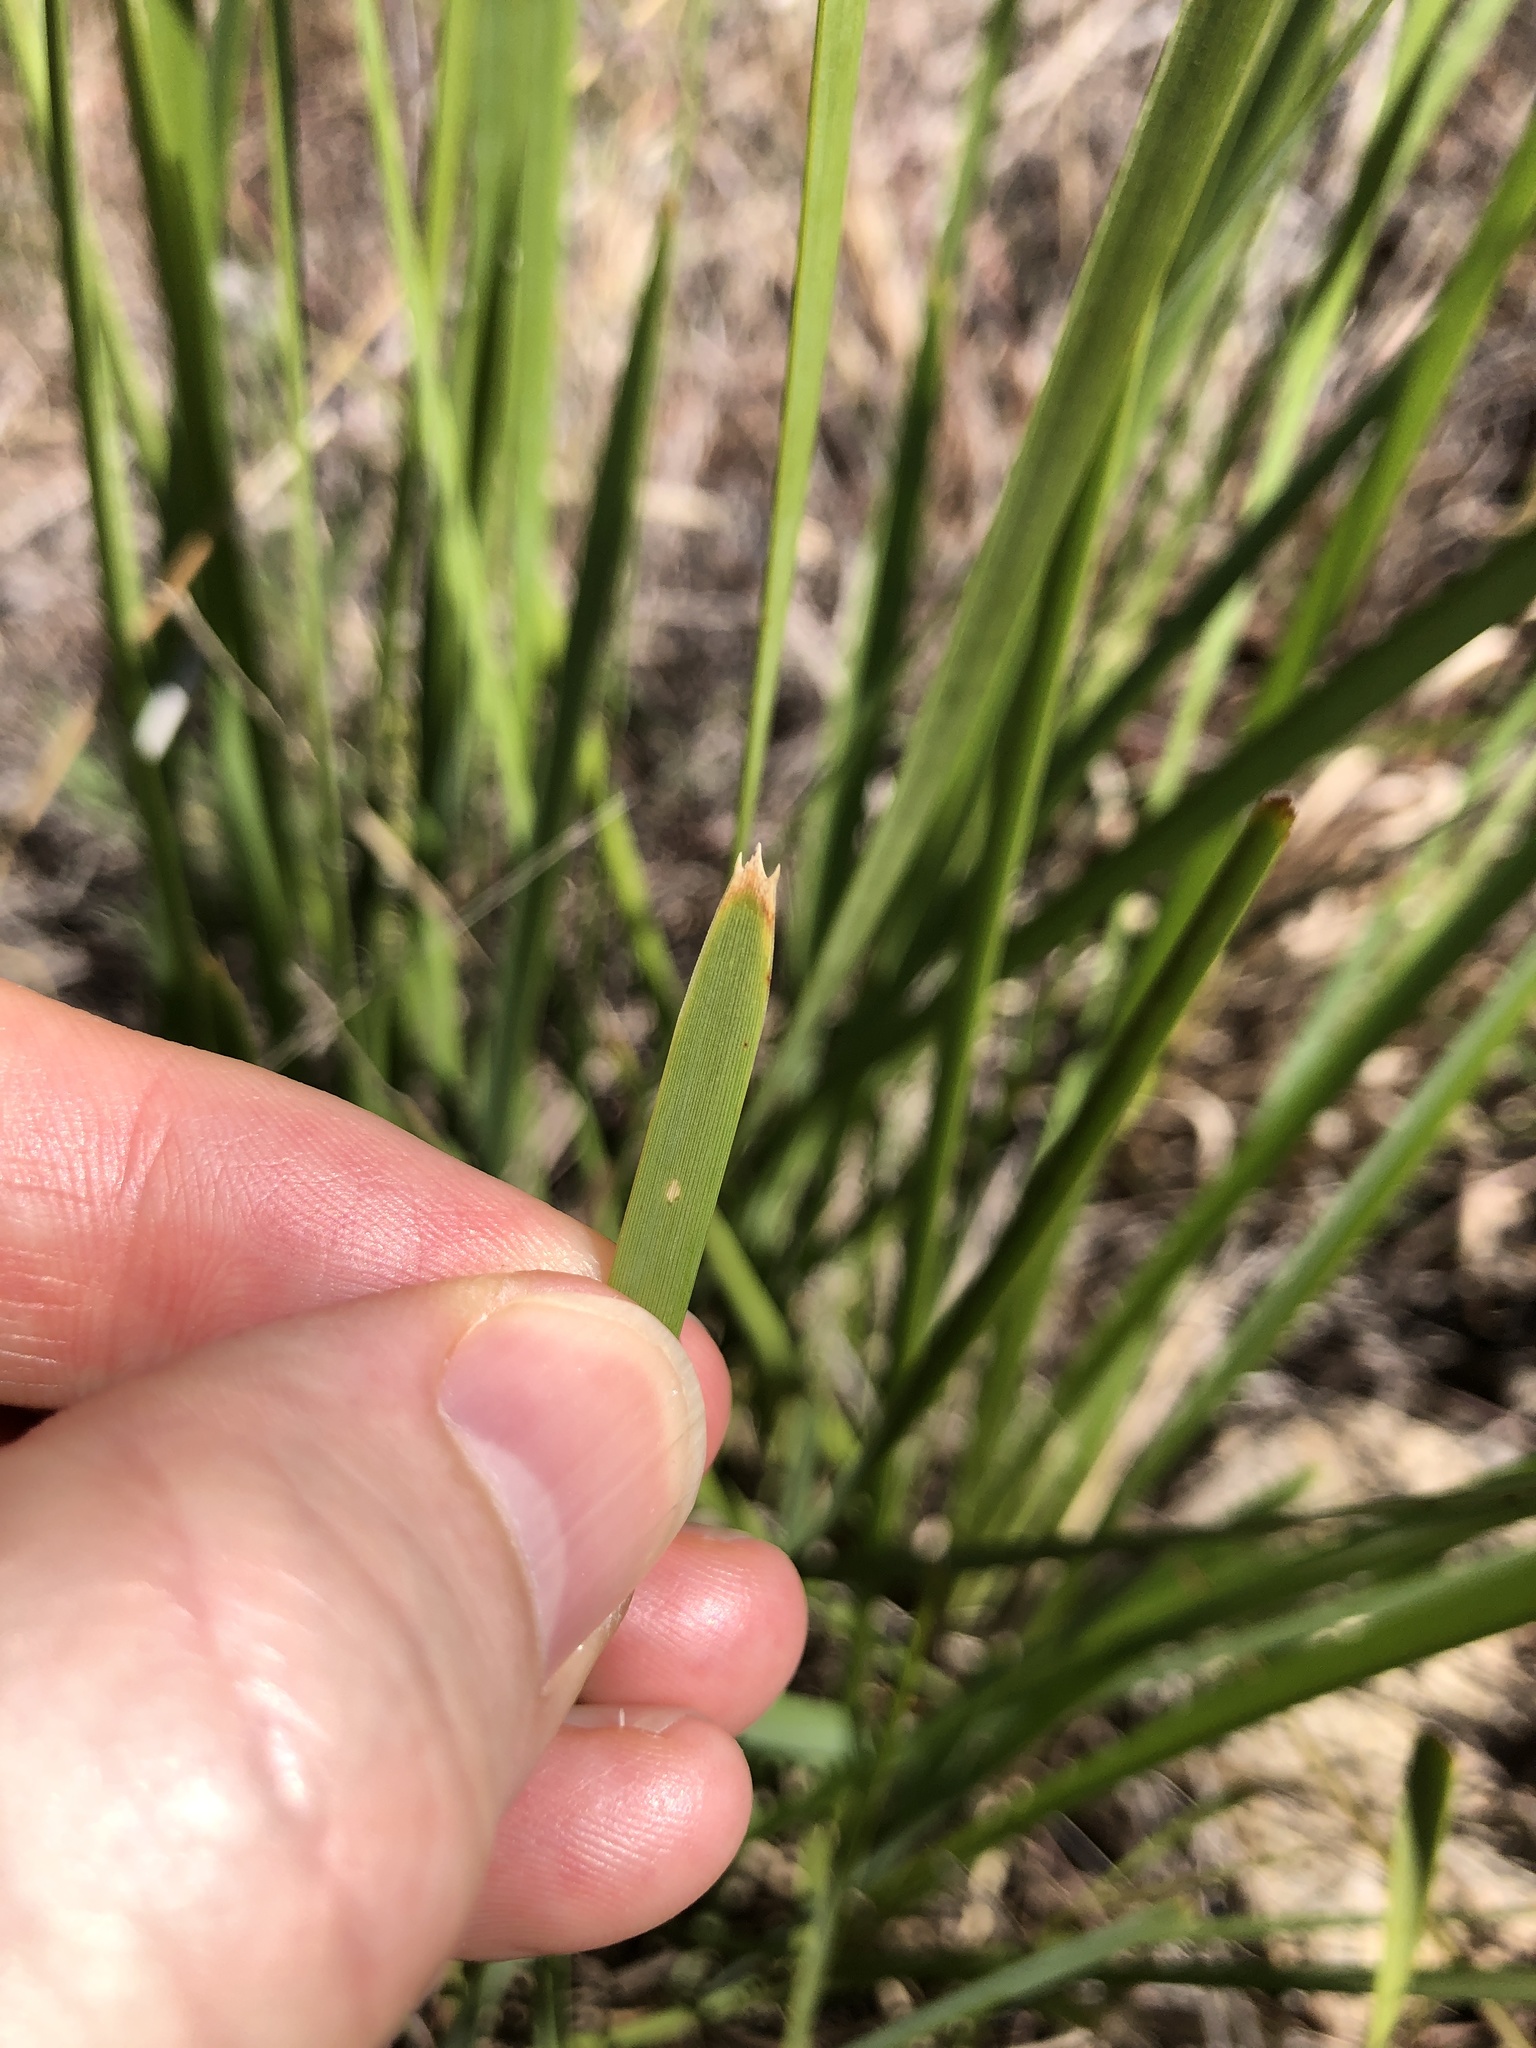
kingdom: Plantae
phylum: Tracheophyta
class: Liliopsida
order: Asparagales
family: Asparagaceae
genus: Lomandra
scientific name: Lomandra longifolia
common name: Longleaf mat-rush
